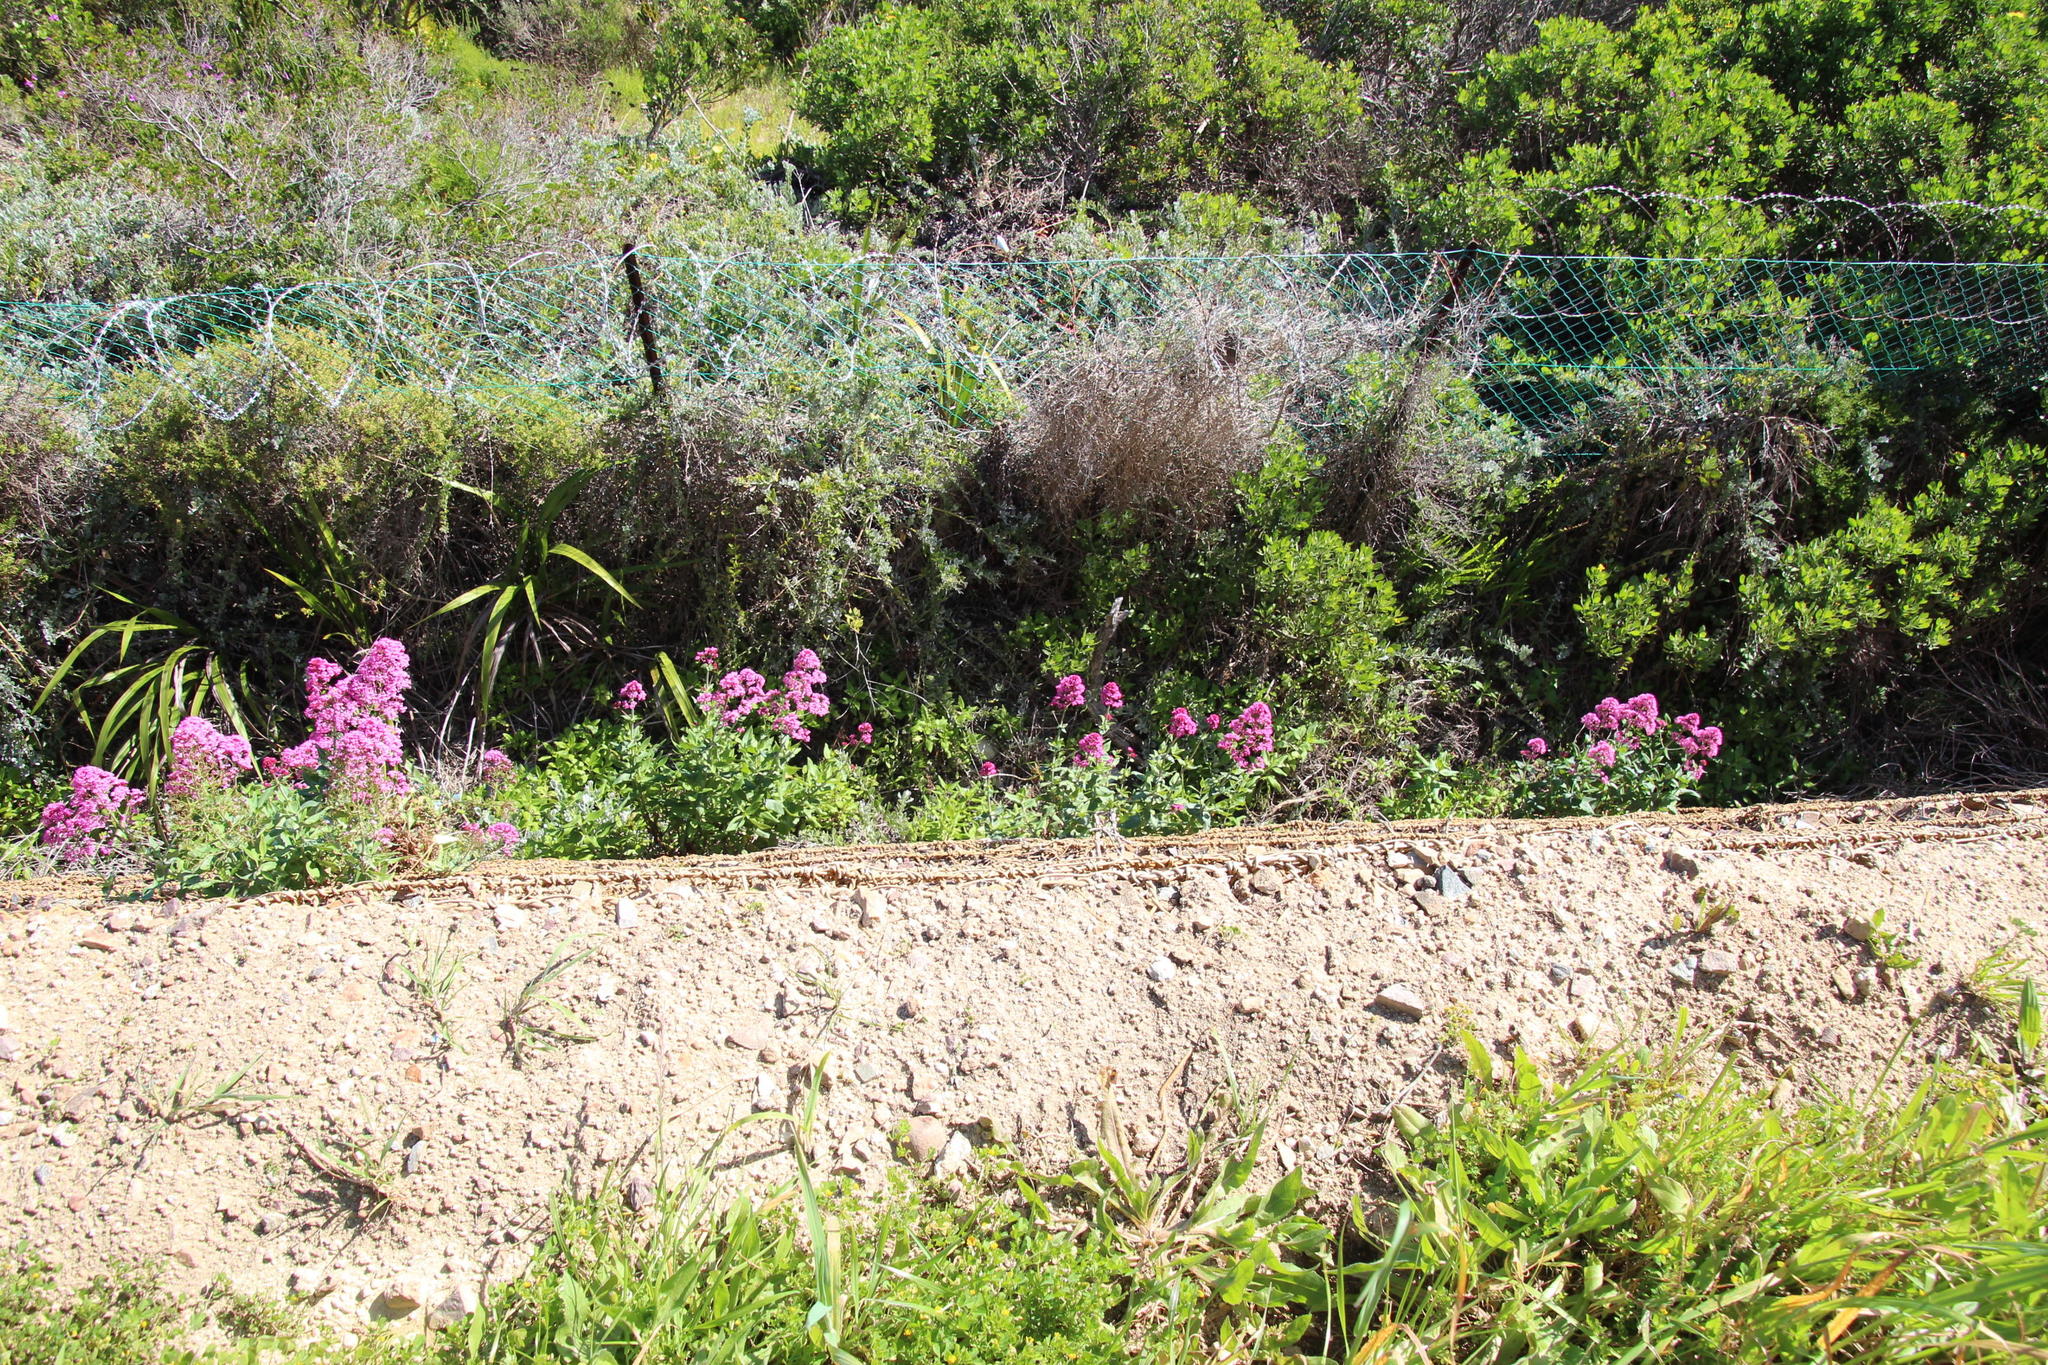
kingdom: Plantae
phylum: Tracheophyta
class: Magnoliopsida
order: Dipsacales
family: Caprifoliaceae
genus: Centranthus
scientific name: Centranthus ruber
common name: Red valerian
